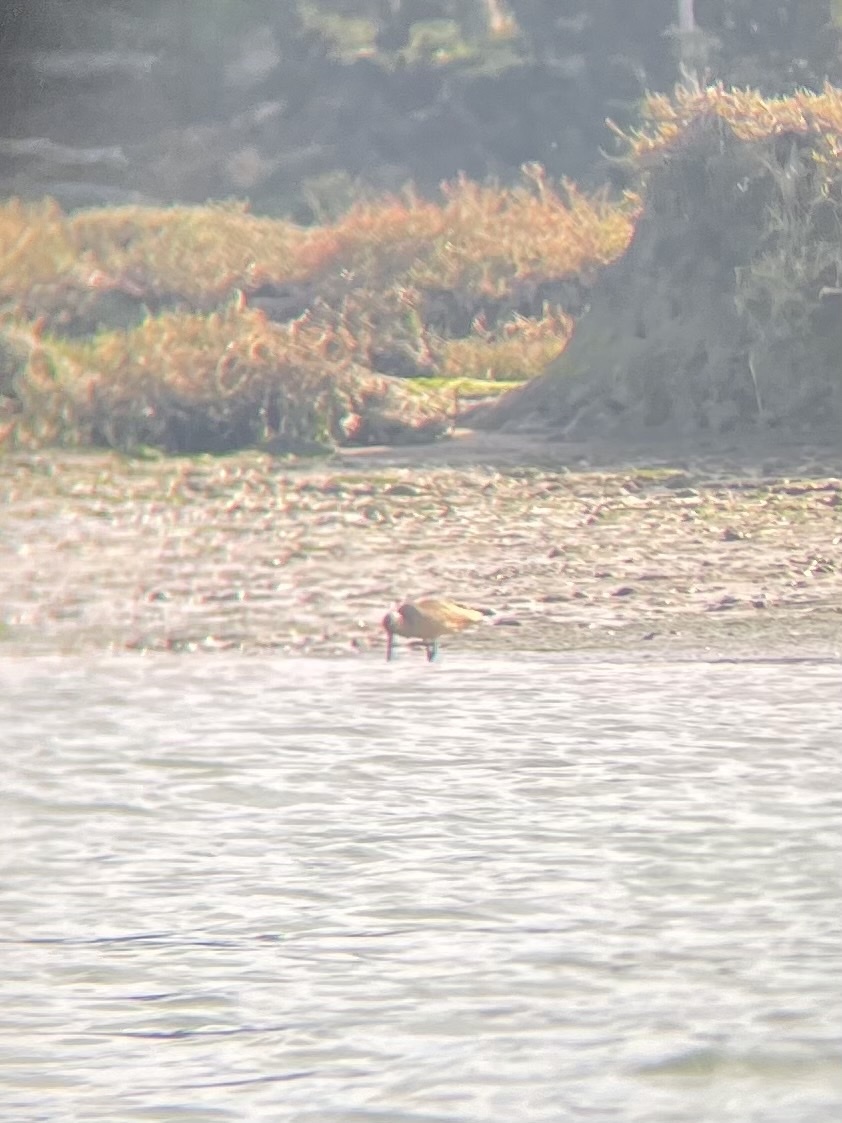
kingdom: Animalia
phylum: Chordata
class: Aves
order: Charadriiformes
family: Scolopacidae
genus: Limosa
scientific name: Limosa fedoa
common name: Marbled godwit
